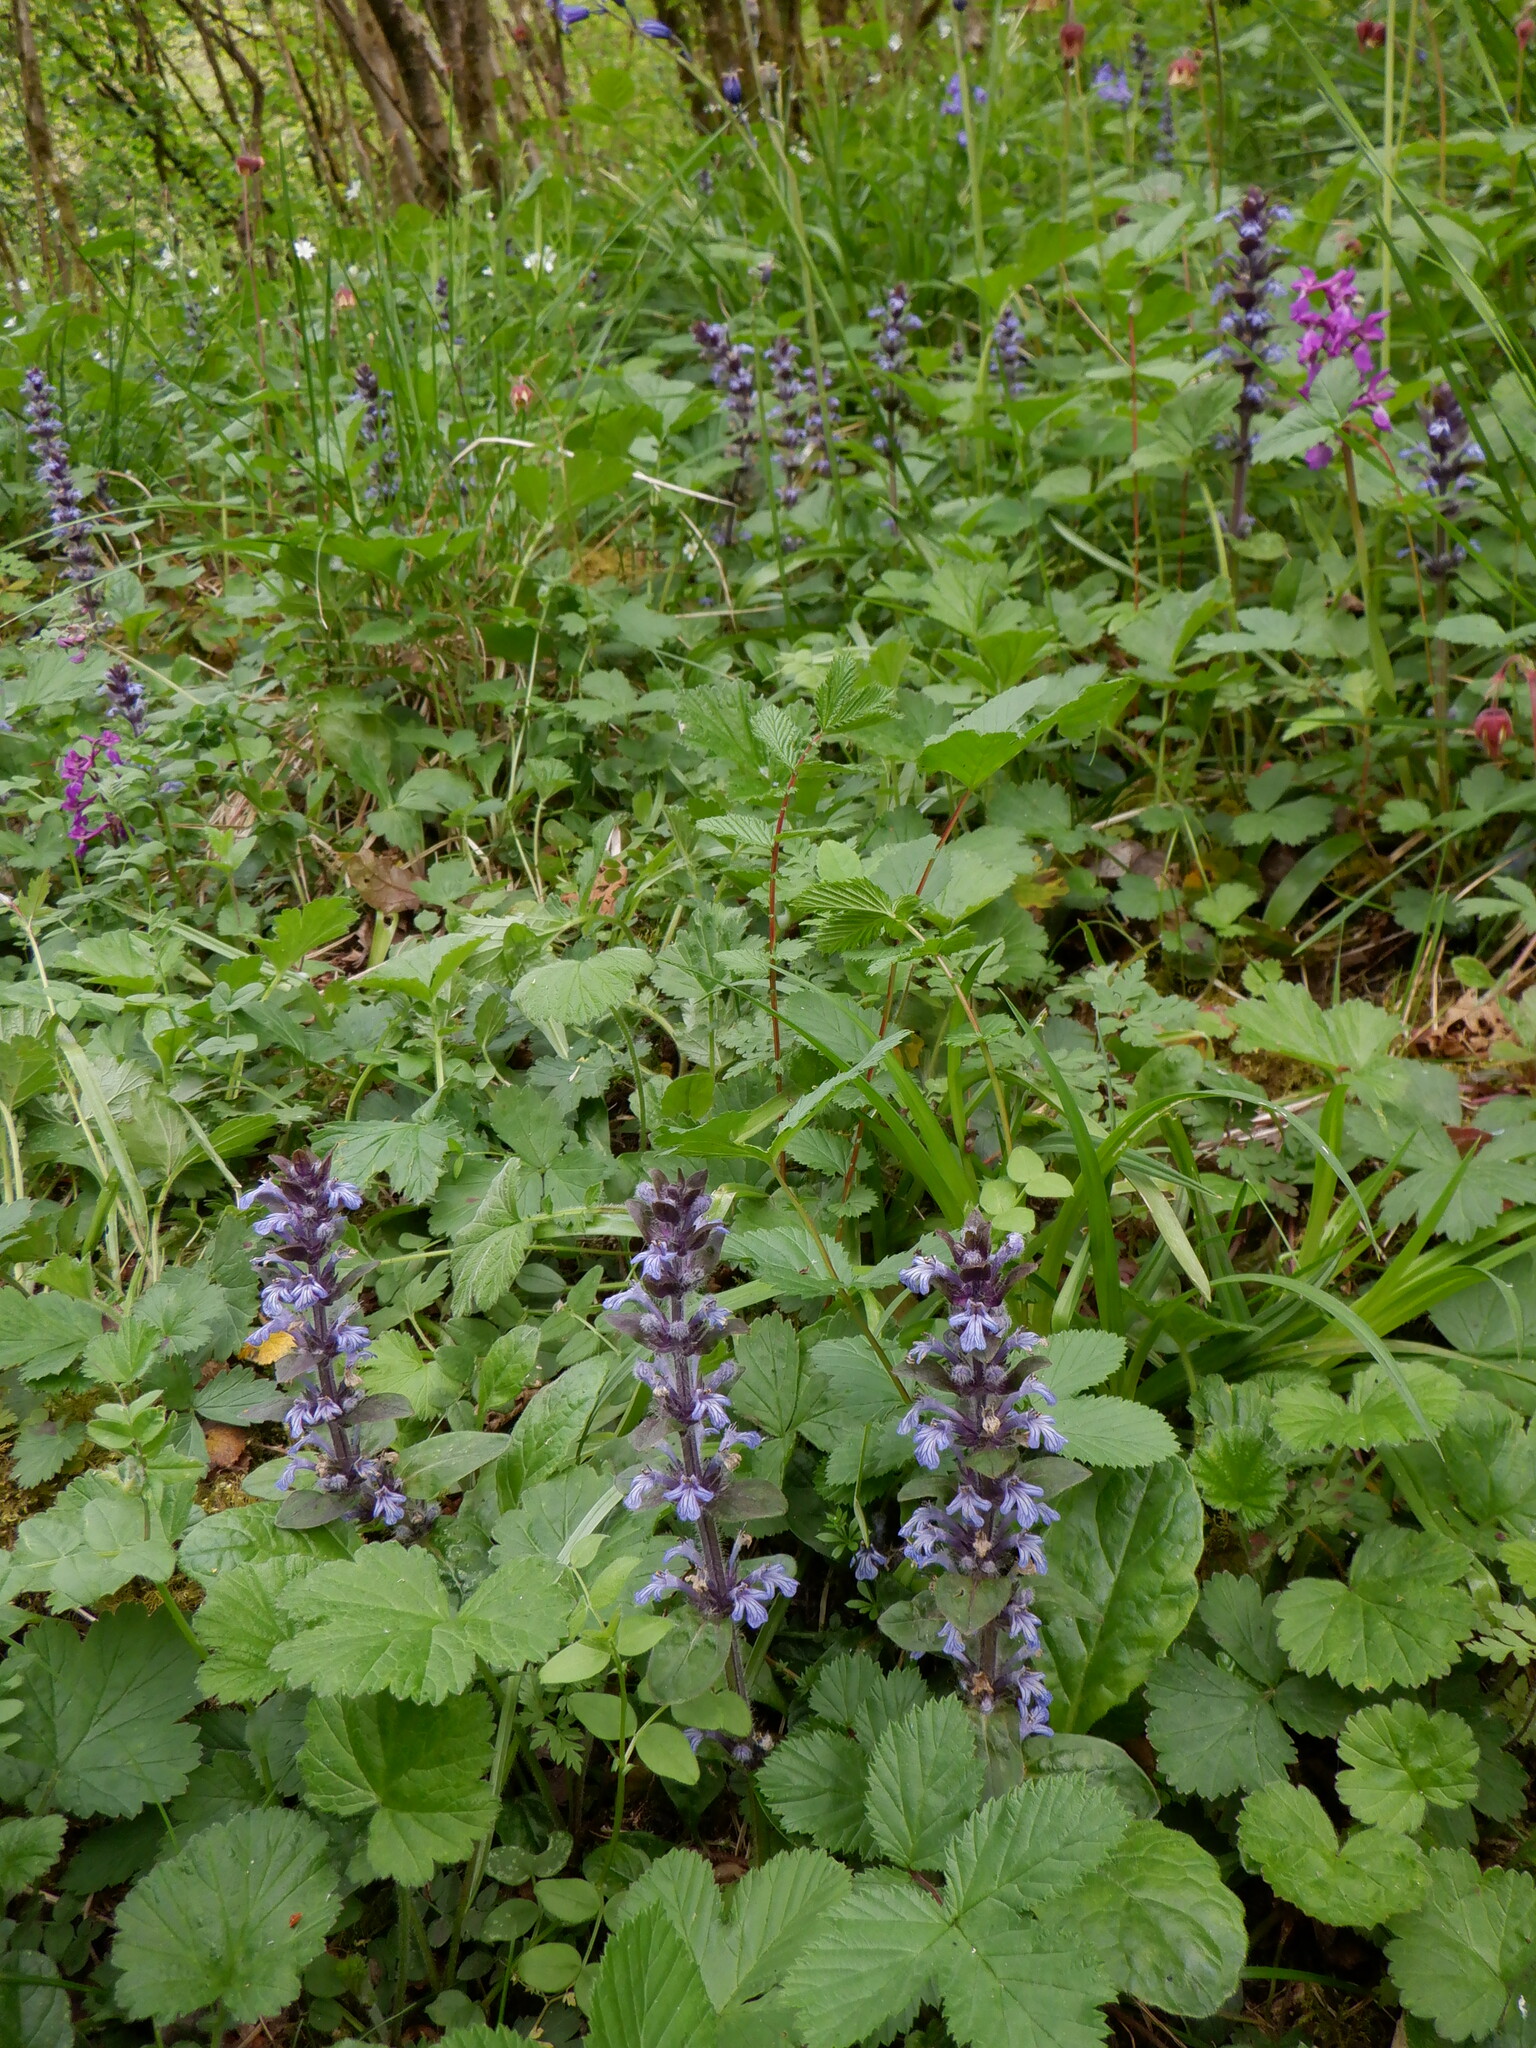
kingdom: Plantae
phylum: Tracheophyta
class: Magnoliopsida
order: Lamiales
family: Lamiaceae
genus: Ajuga
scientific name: Ajuga reptans
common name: Bugle
